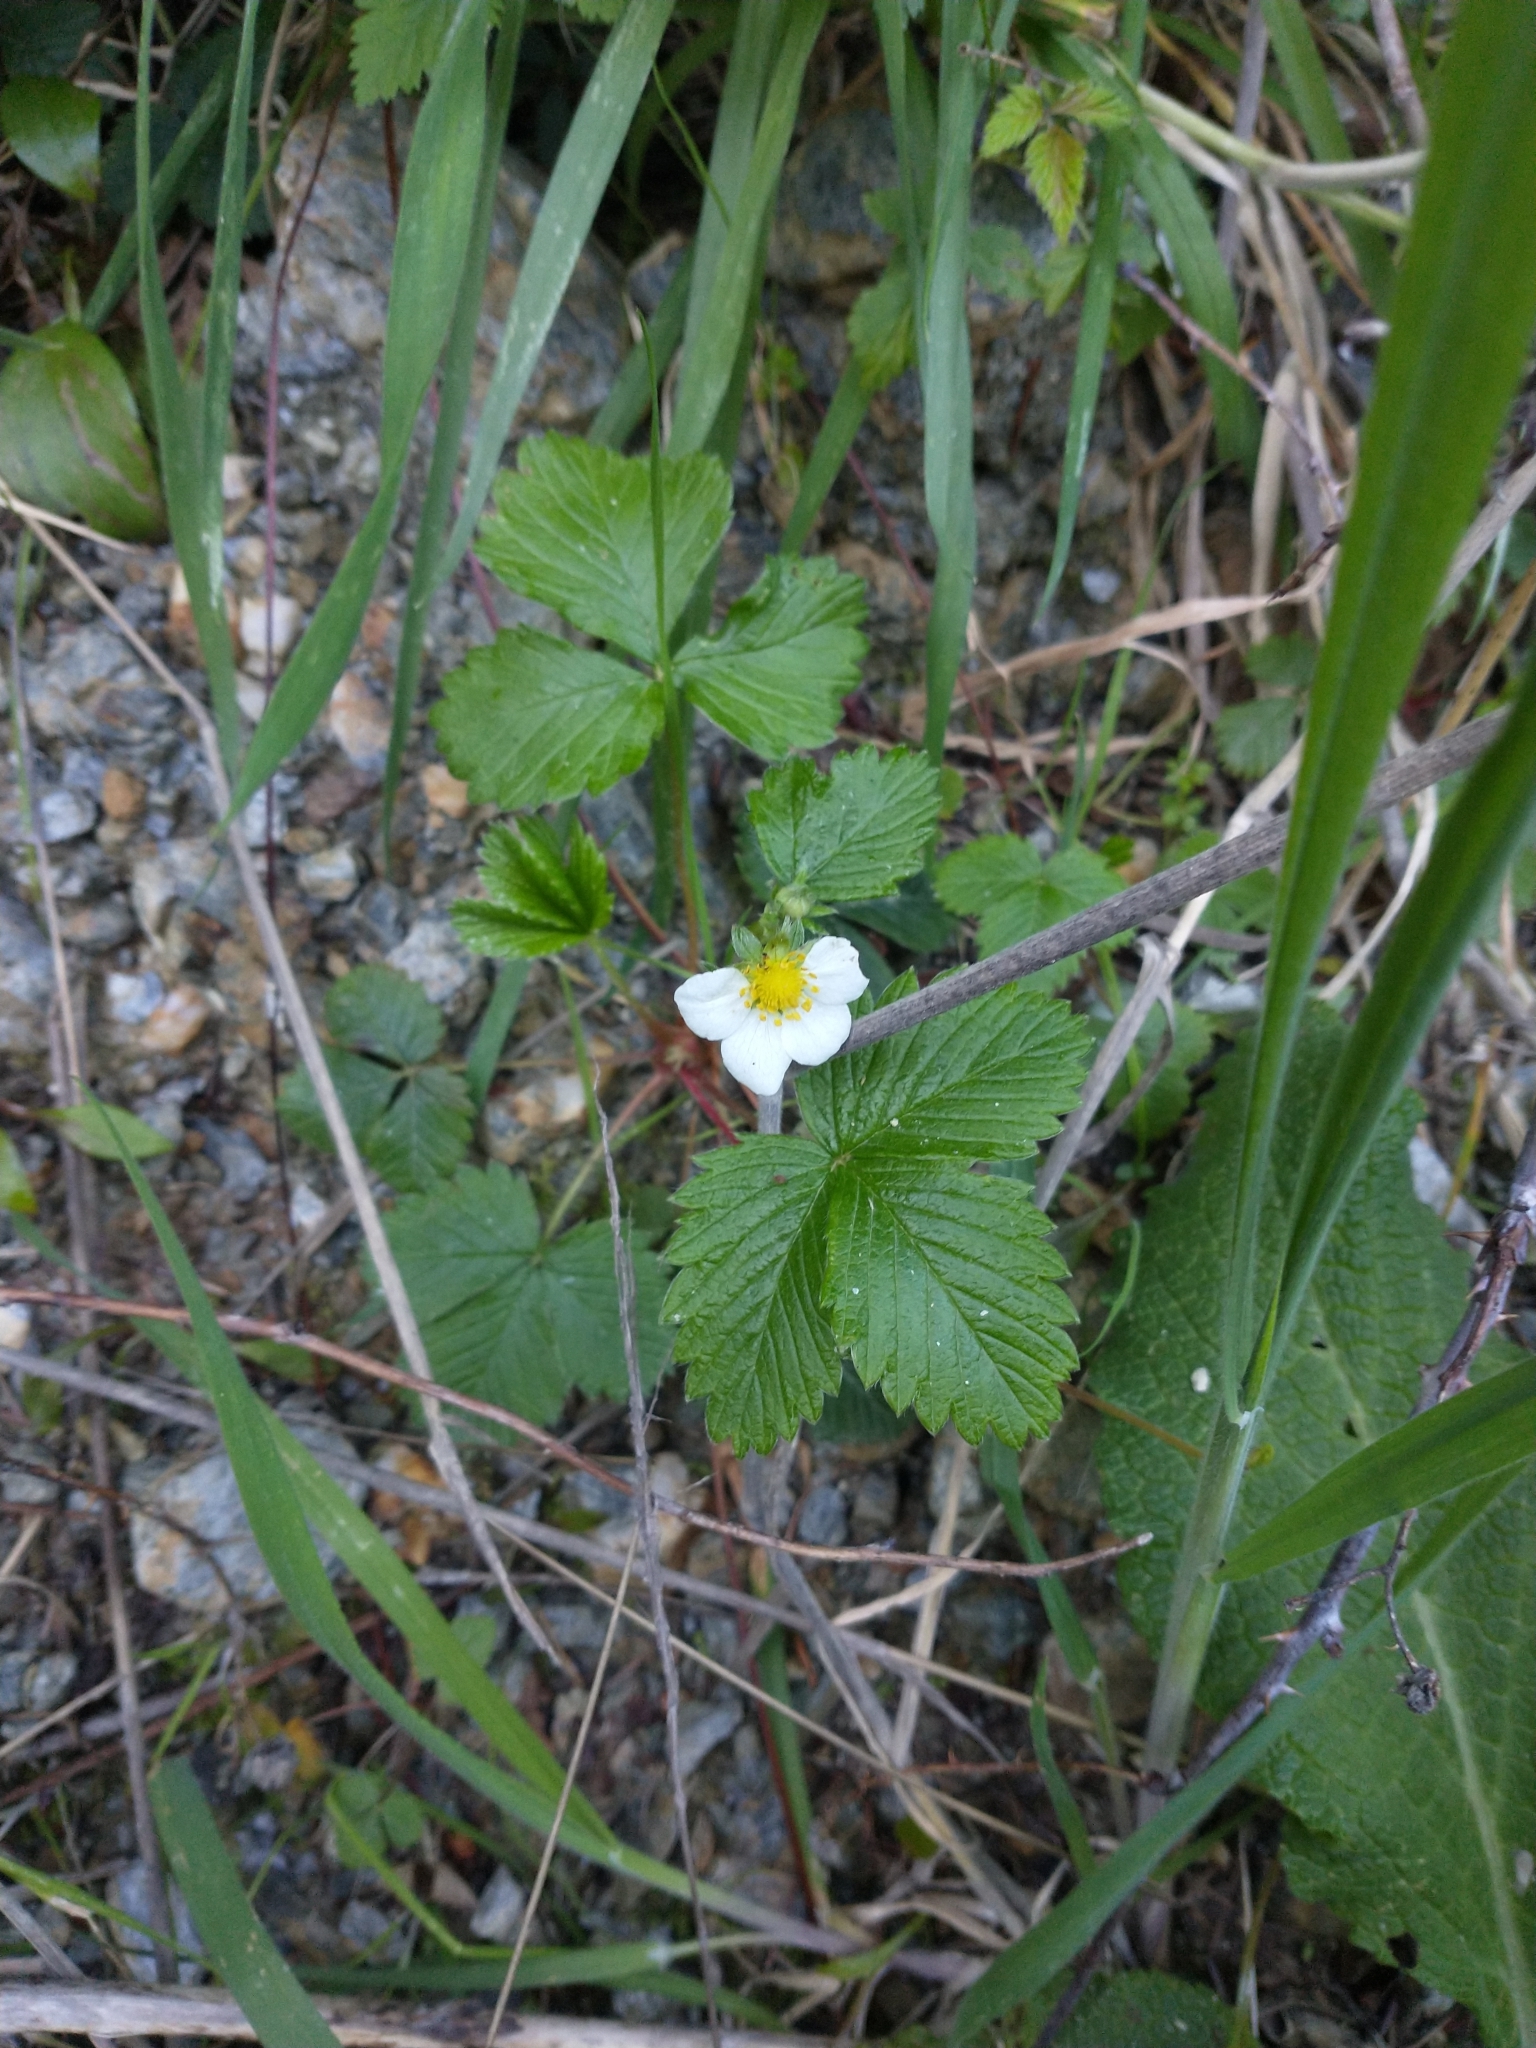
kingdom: Plantae
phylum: Tracheophyta
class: Magnoliopsida
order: Rosales
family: Rosaceae
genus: Fragaria
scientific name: Fragaria vesca
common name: Wild strawberry
